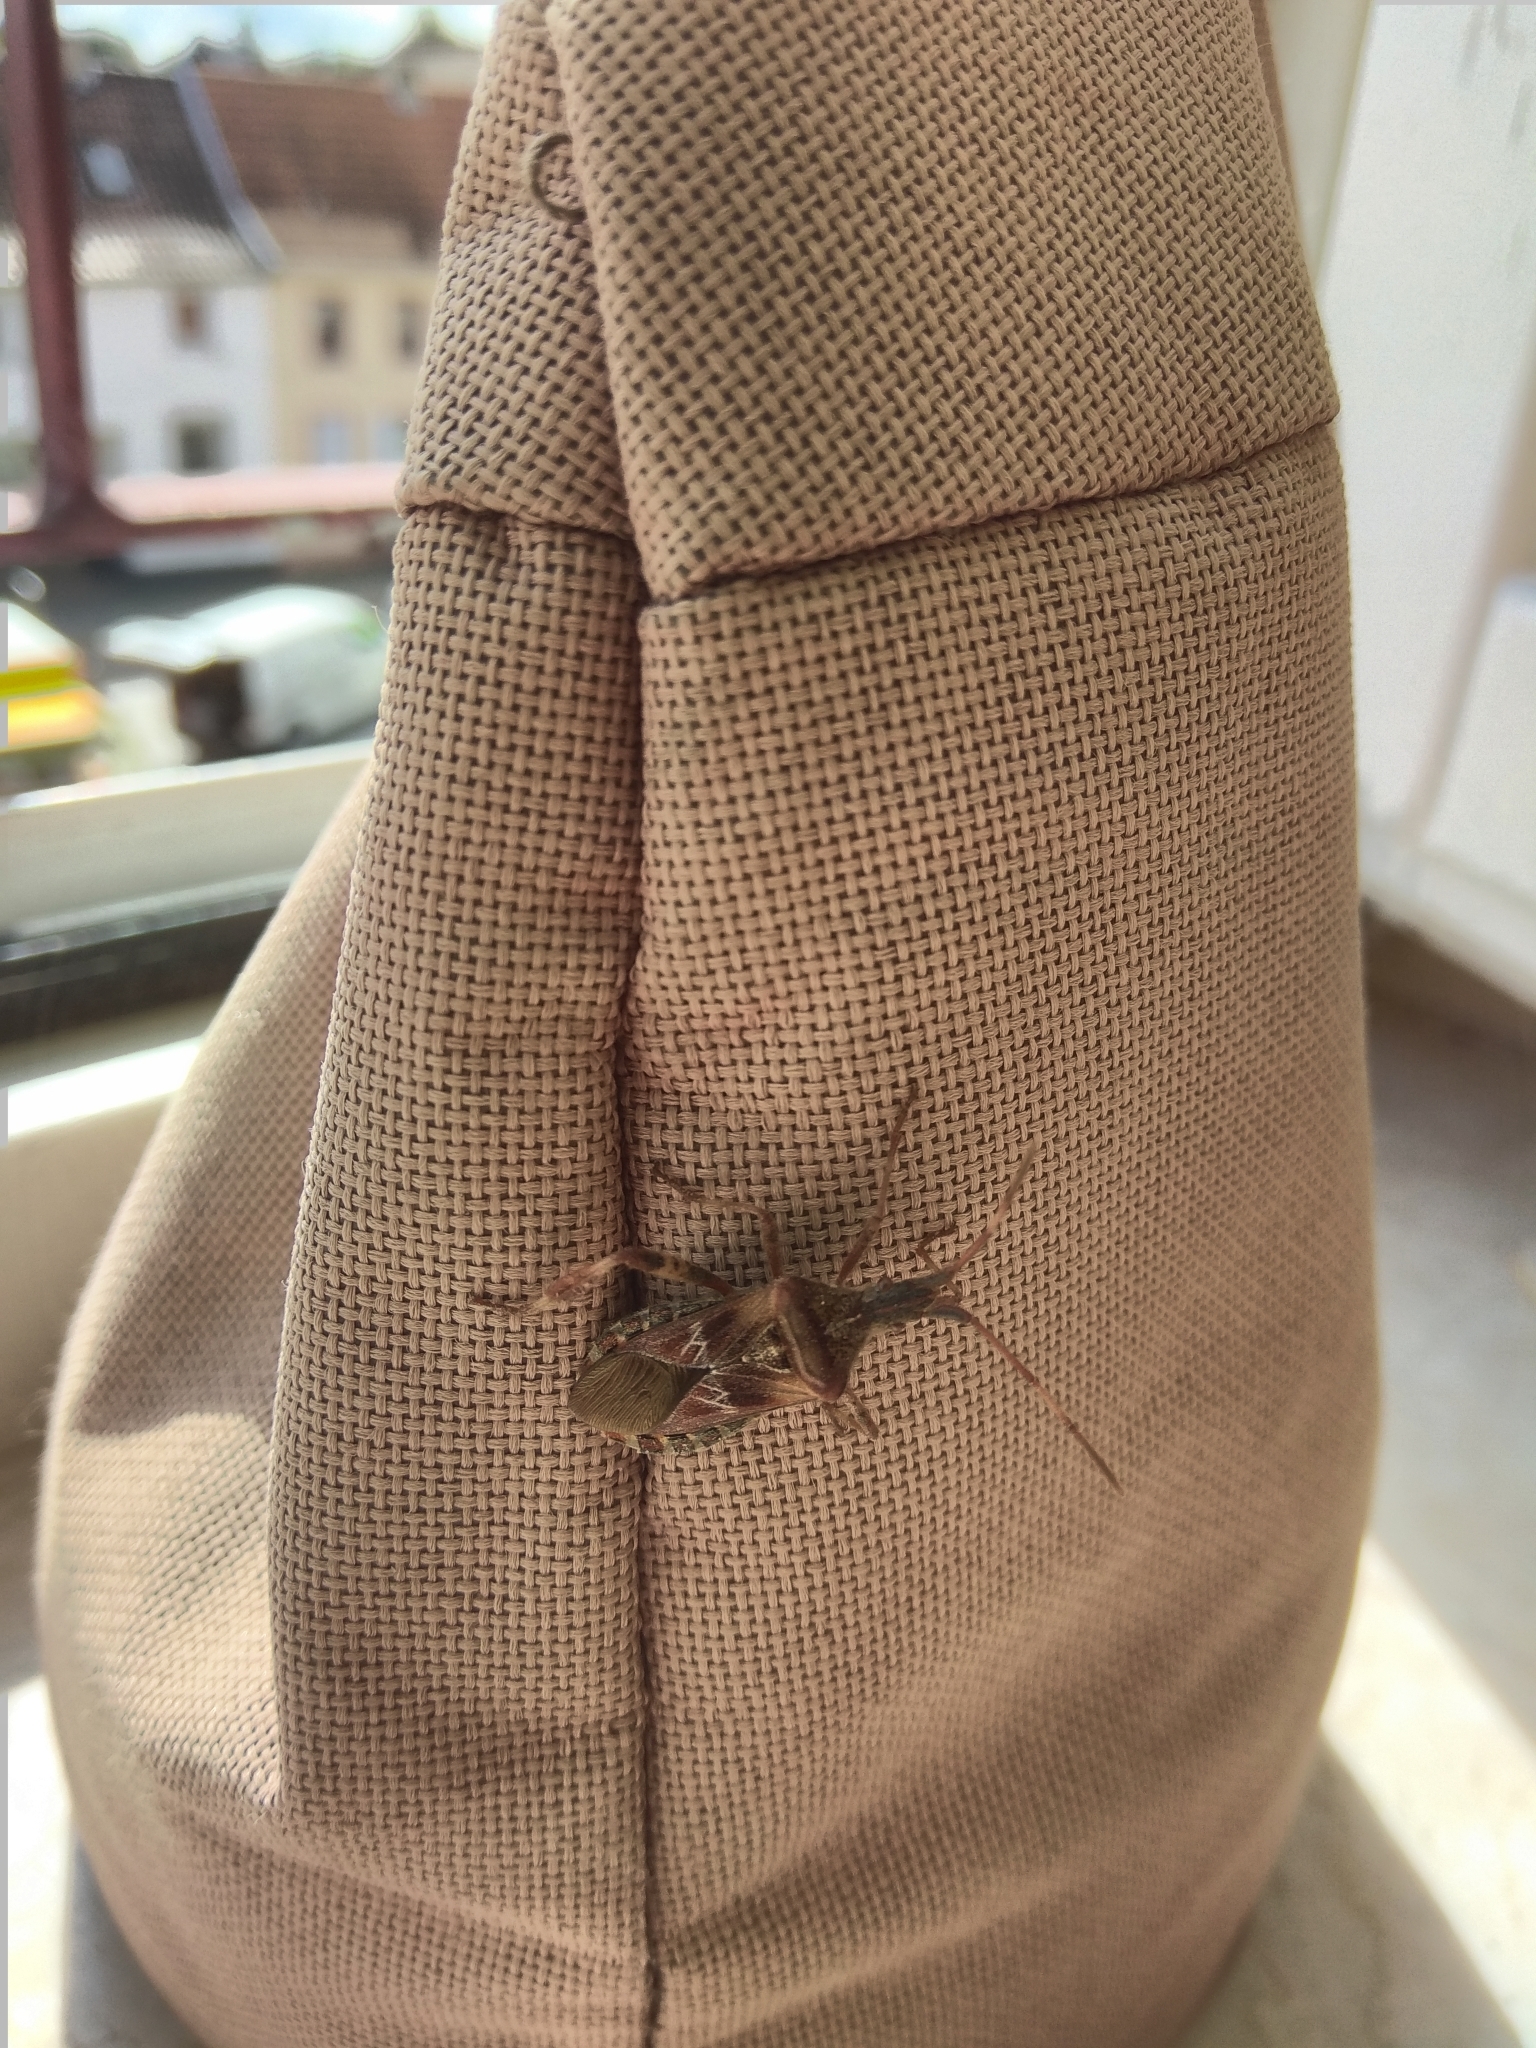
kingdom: Animalia
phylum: Arthropoda
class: Insecta
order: Hemiptera
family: Coreidae
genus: Leptoglossus
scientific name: Leptoglossus occidentalis
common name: Western conifer-seed bug
